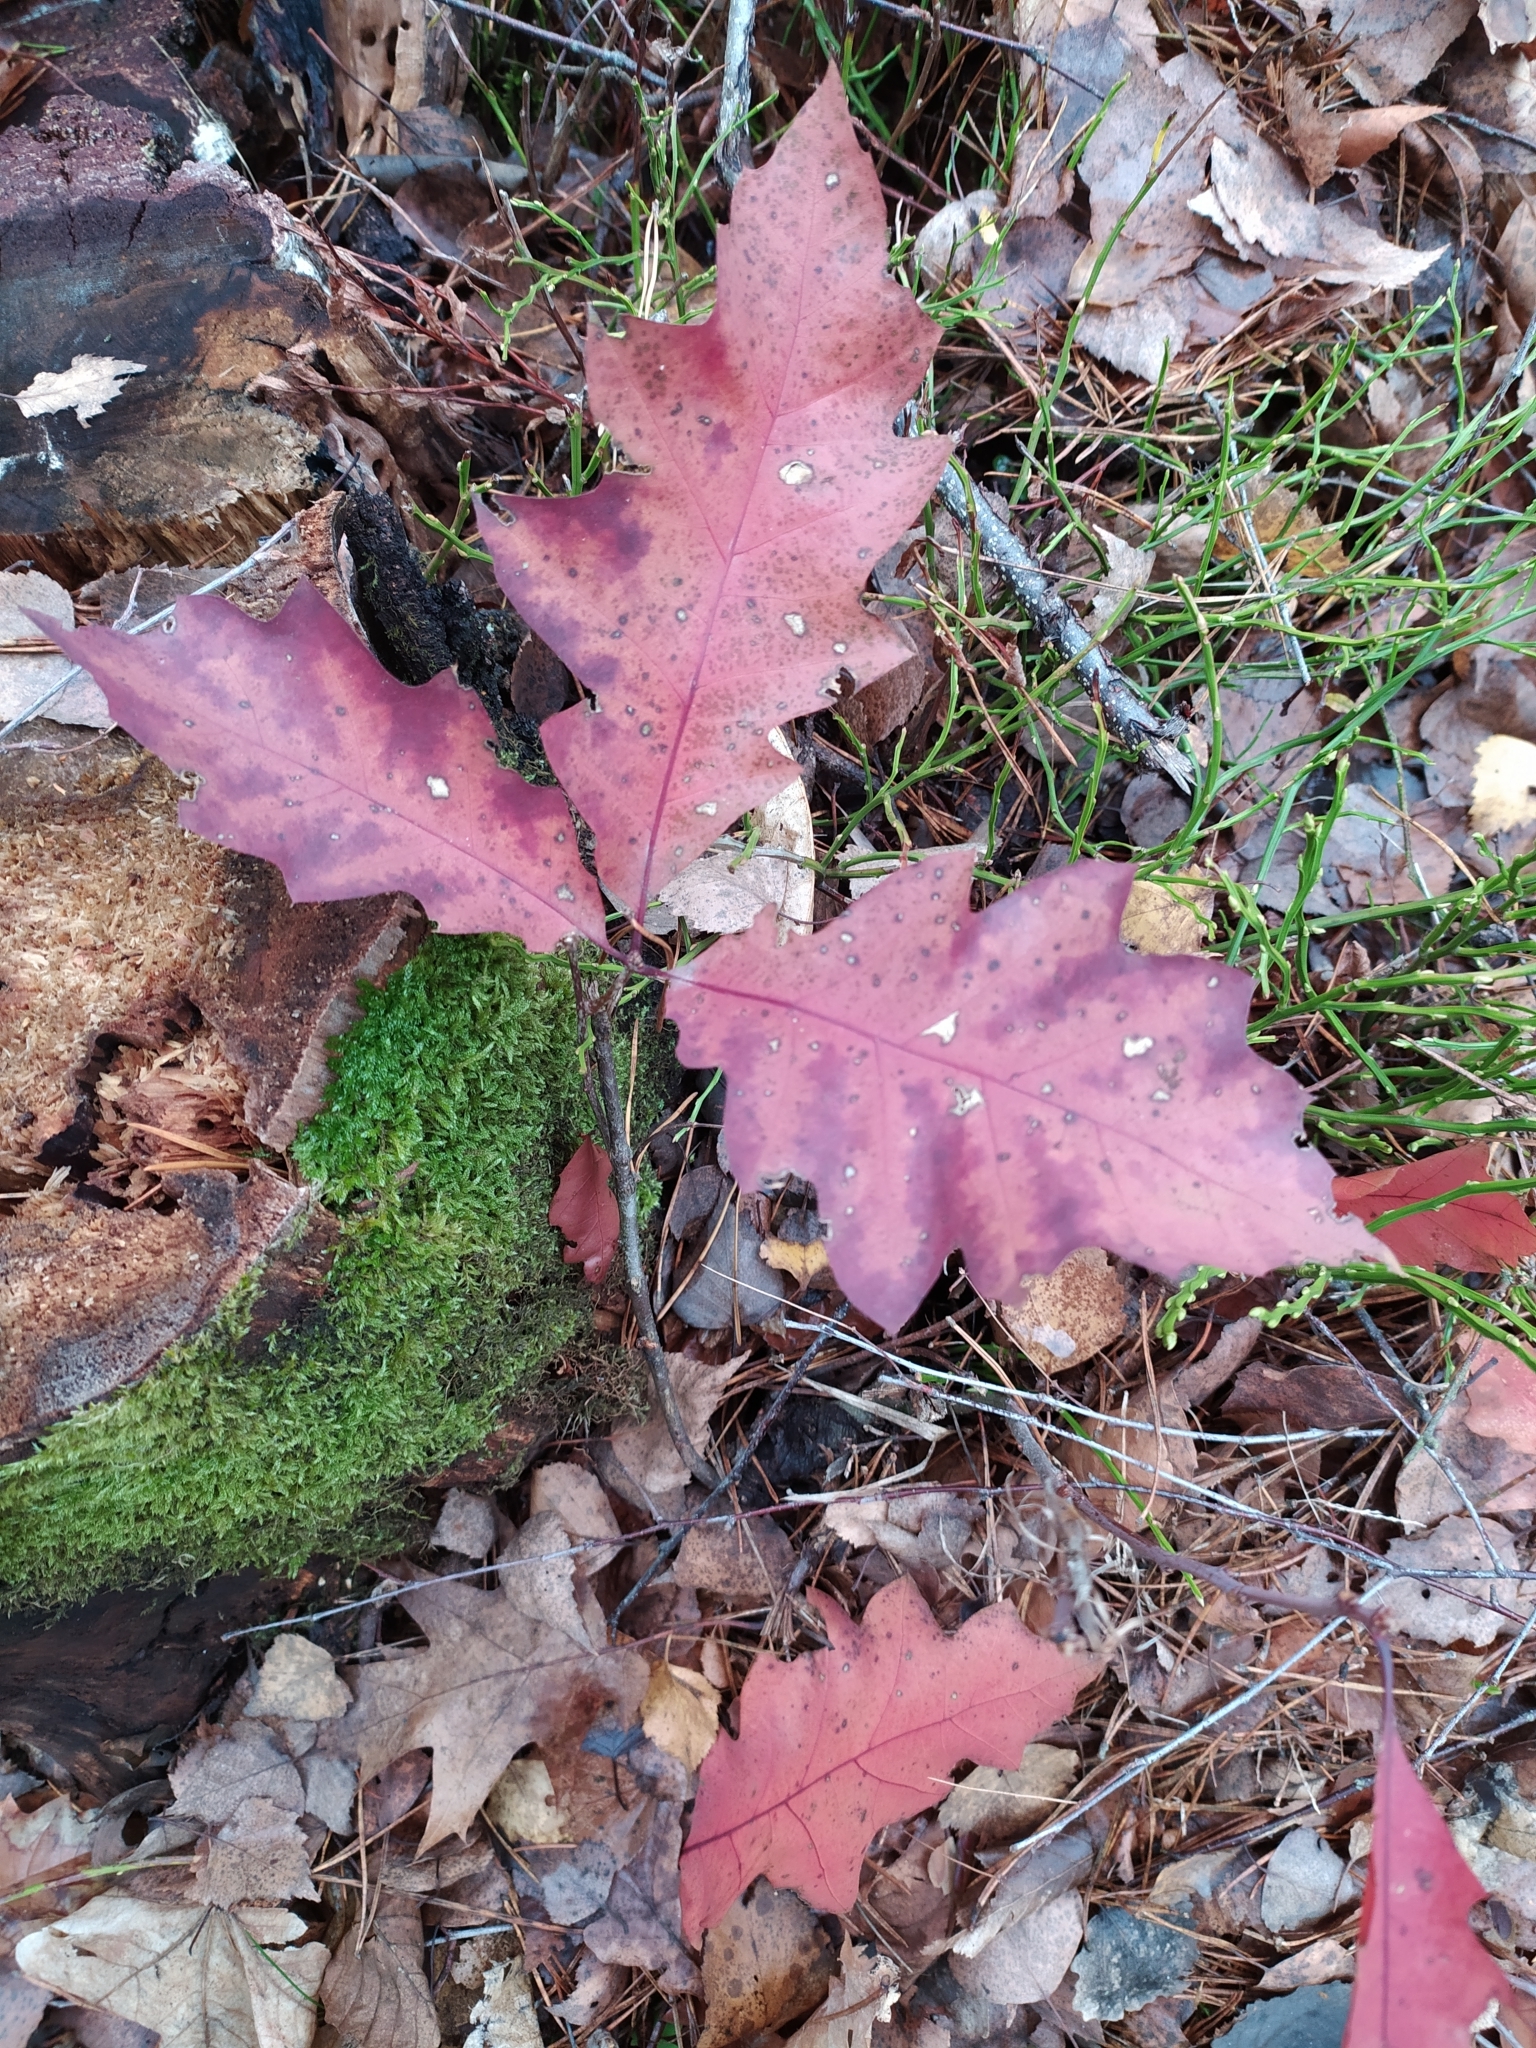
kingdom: Plantae
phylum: Tracheophyta
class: Magnoliopsida
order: Fagales
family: Fagaceae
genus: Quercus
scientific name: Quercus rubra
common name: Red oak
